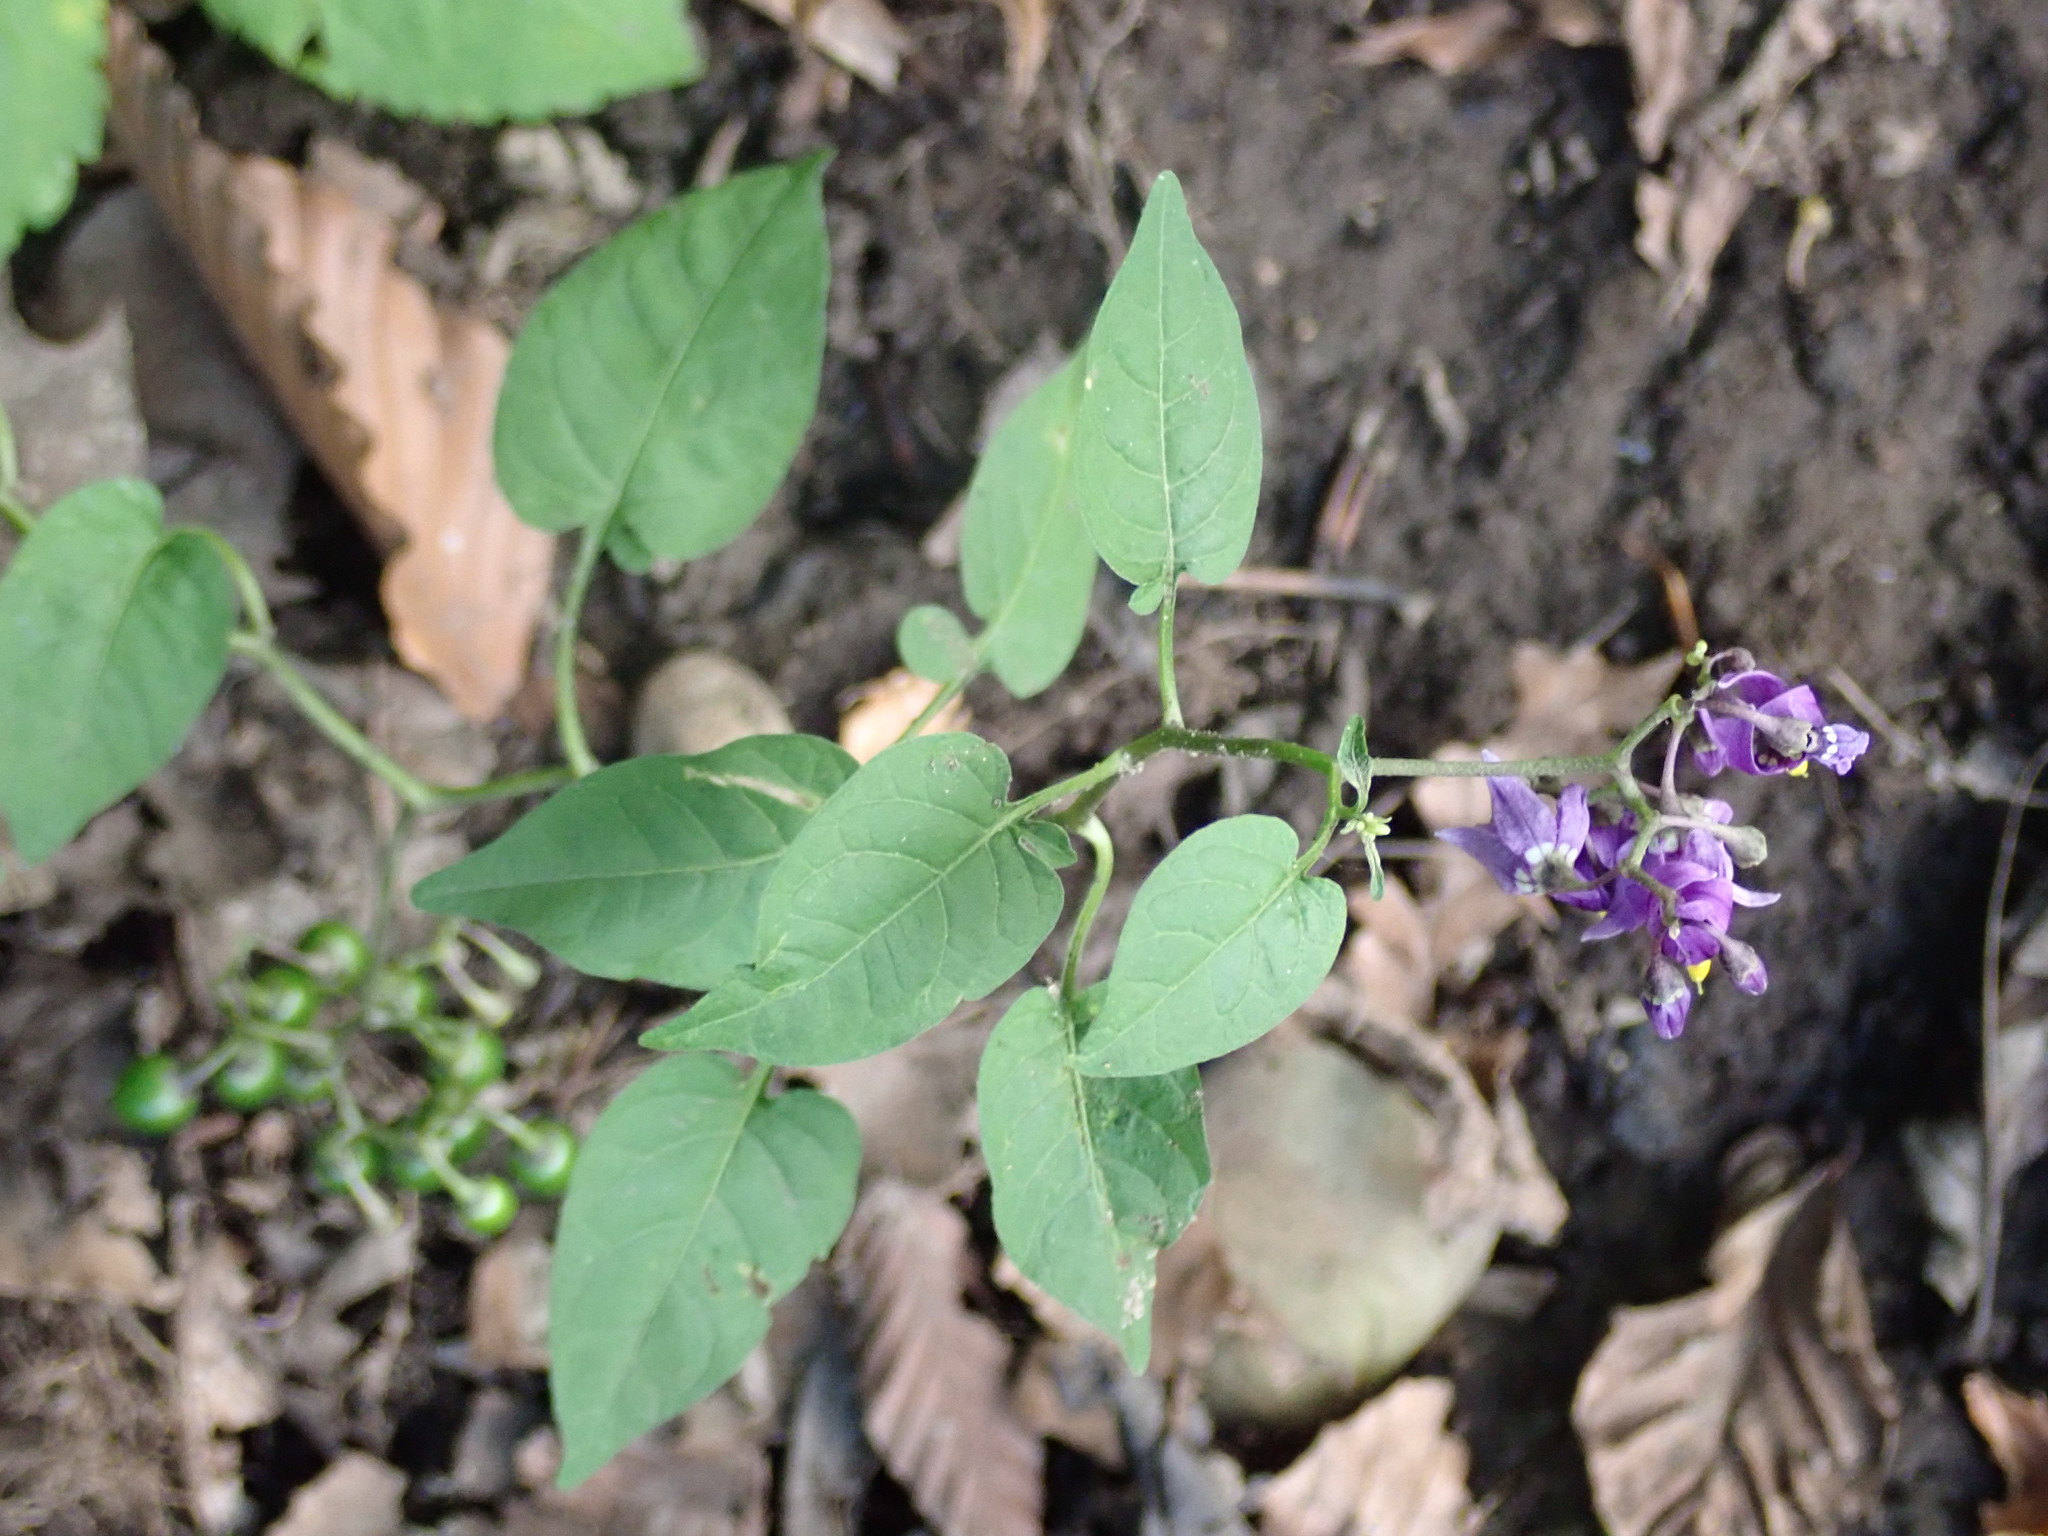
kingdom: Plantae
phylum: Tracheophyta
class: Magnoliopsida
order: Solanales
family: Solanaceae
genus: Solanum
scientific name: Solanum dulcamara
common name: Climbing nightshade
